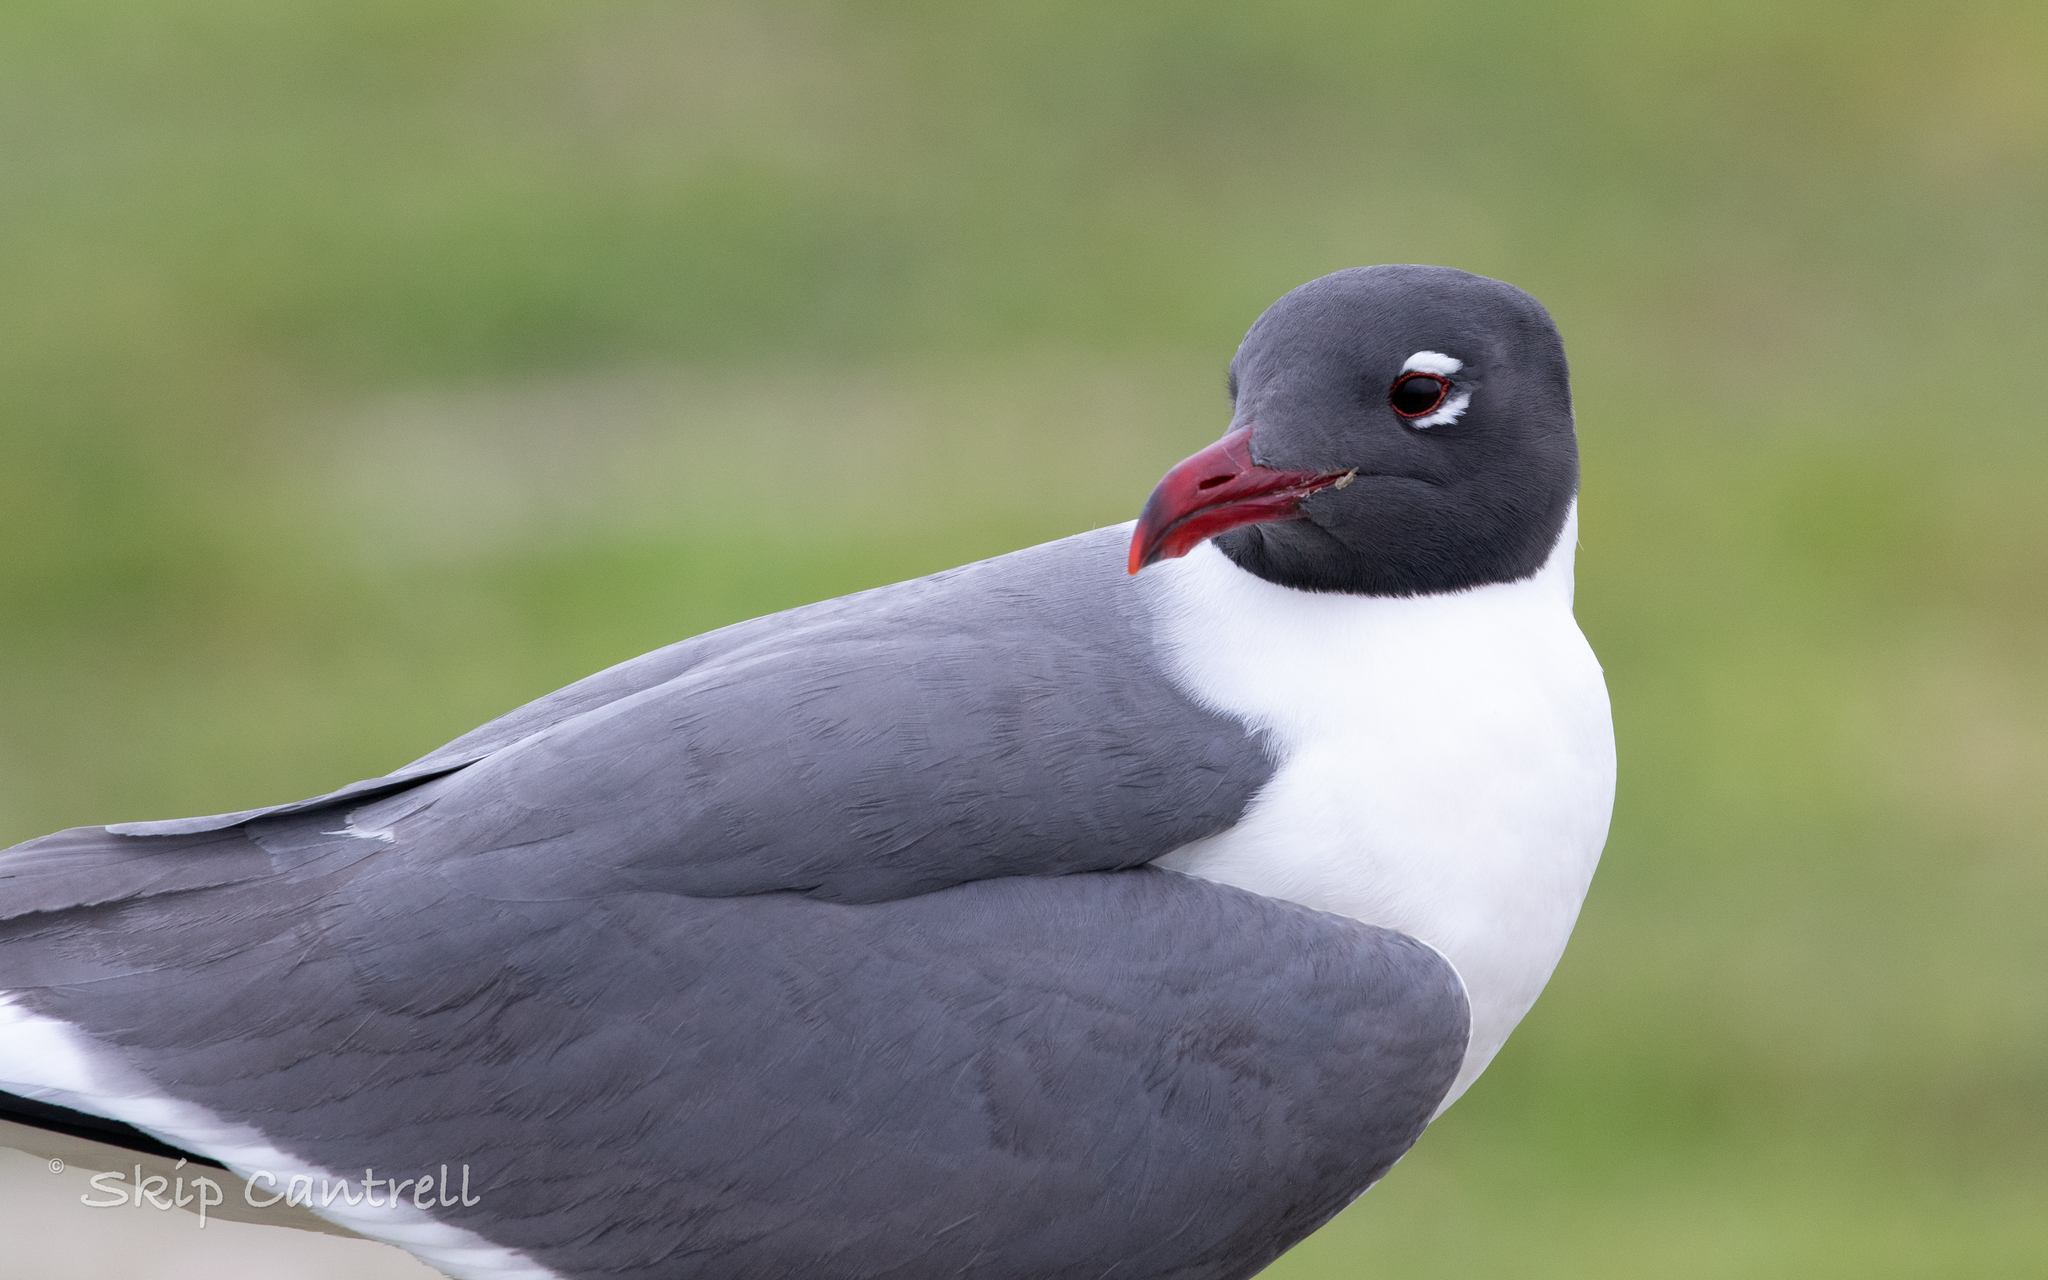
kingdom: Animalia
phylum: Chordata
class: Aves
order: Charadriiformes
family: Laridae
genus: Leucophaeus
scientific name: Leucophaeus atricilla
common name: Laughing gull
